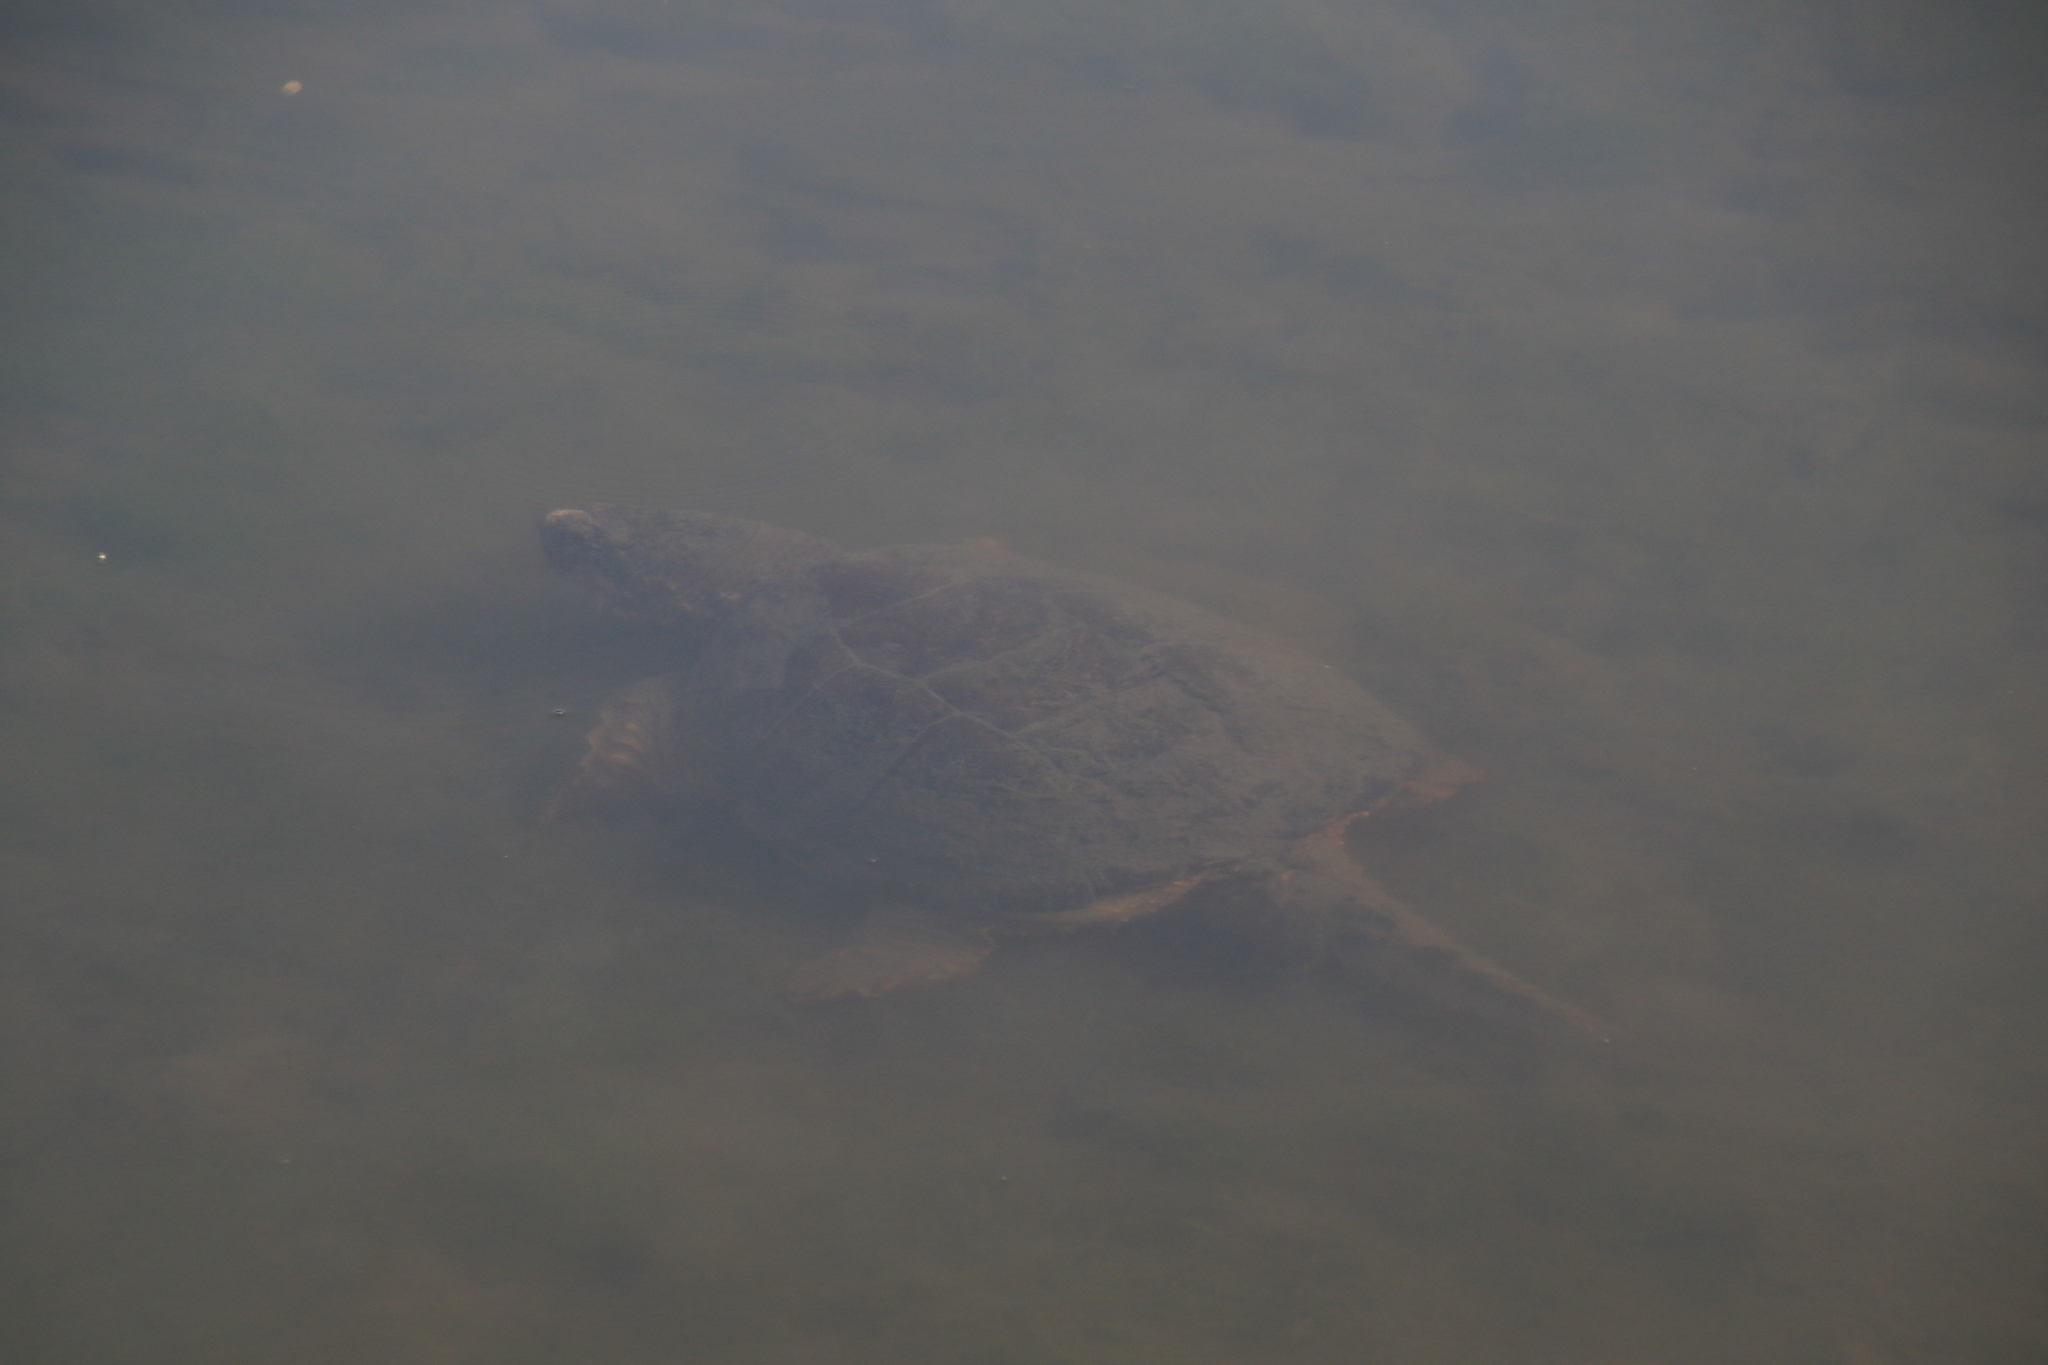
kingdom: Animalia
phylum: Chordata
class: Testudines
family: Chelydridae
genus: Chelydra
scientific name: Chelydra serpentina
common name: Common snapping turtle
